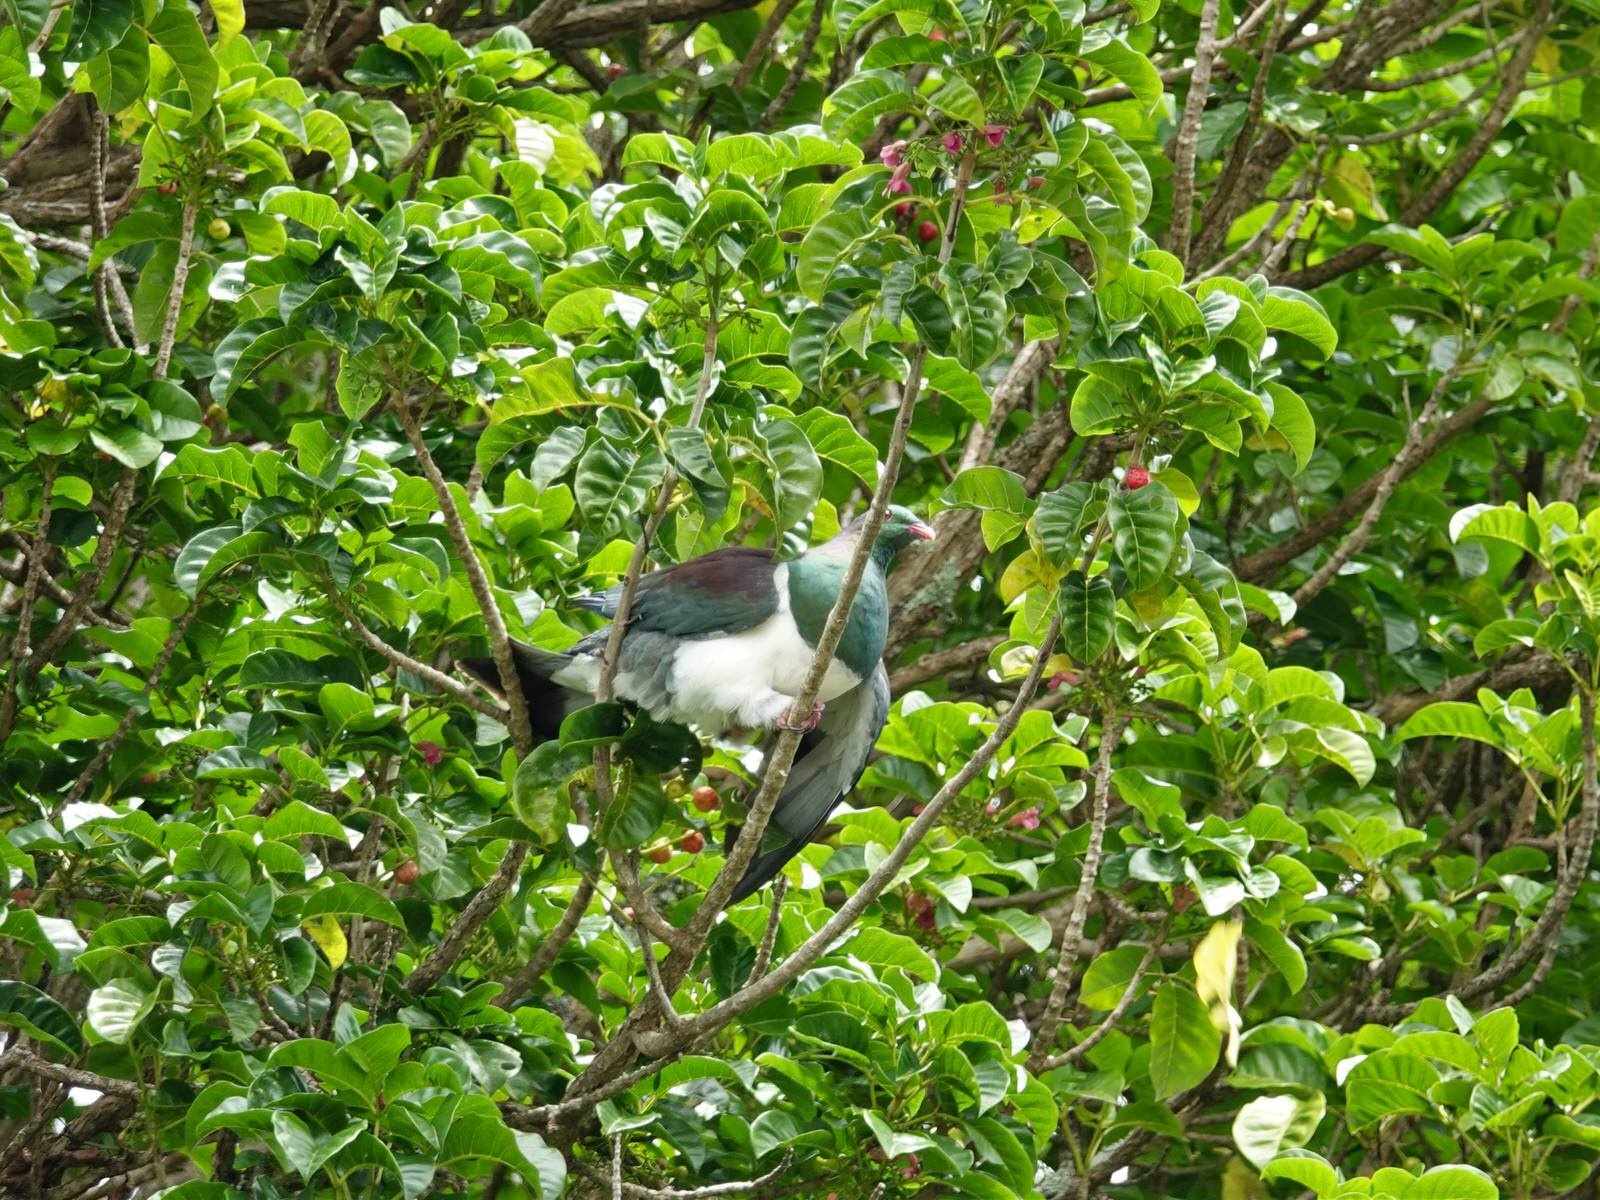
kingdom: Animalia
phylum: Chordata
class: Aves
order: Columbiformes
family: Columbidae
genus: Hemiphaga
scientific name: Hemiphaga novaeseelandiae
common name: New zealand pigeon
